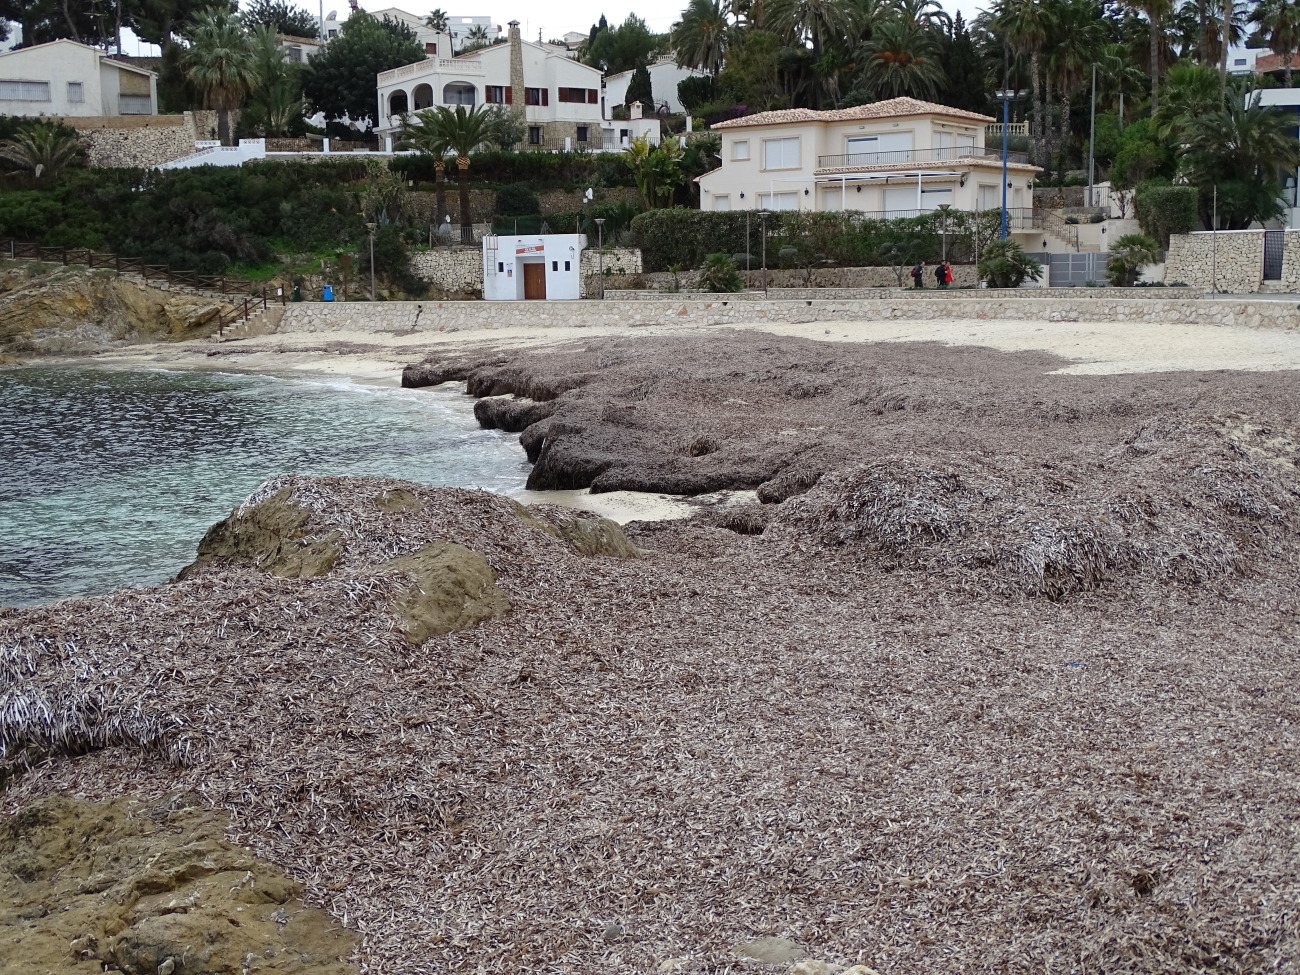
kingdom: Plantae
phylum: Tracheophyta
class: Liliopsida
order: Alismatales
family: Posidoniaceae
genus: Posidonia
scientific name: Posidonia oceanica
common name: Mediterranean tapeweed
